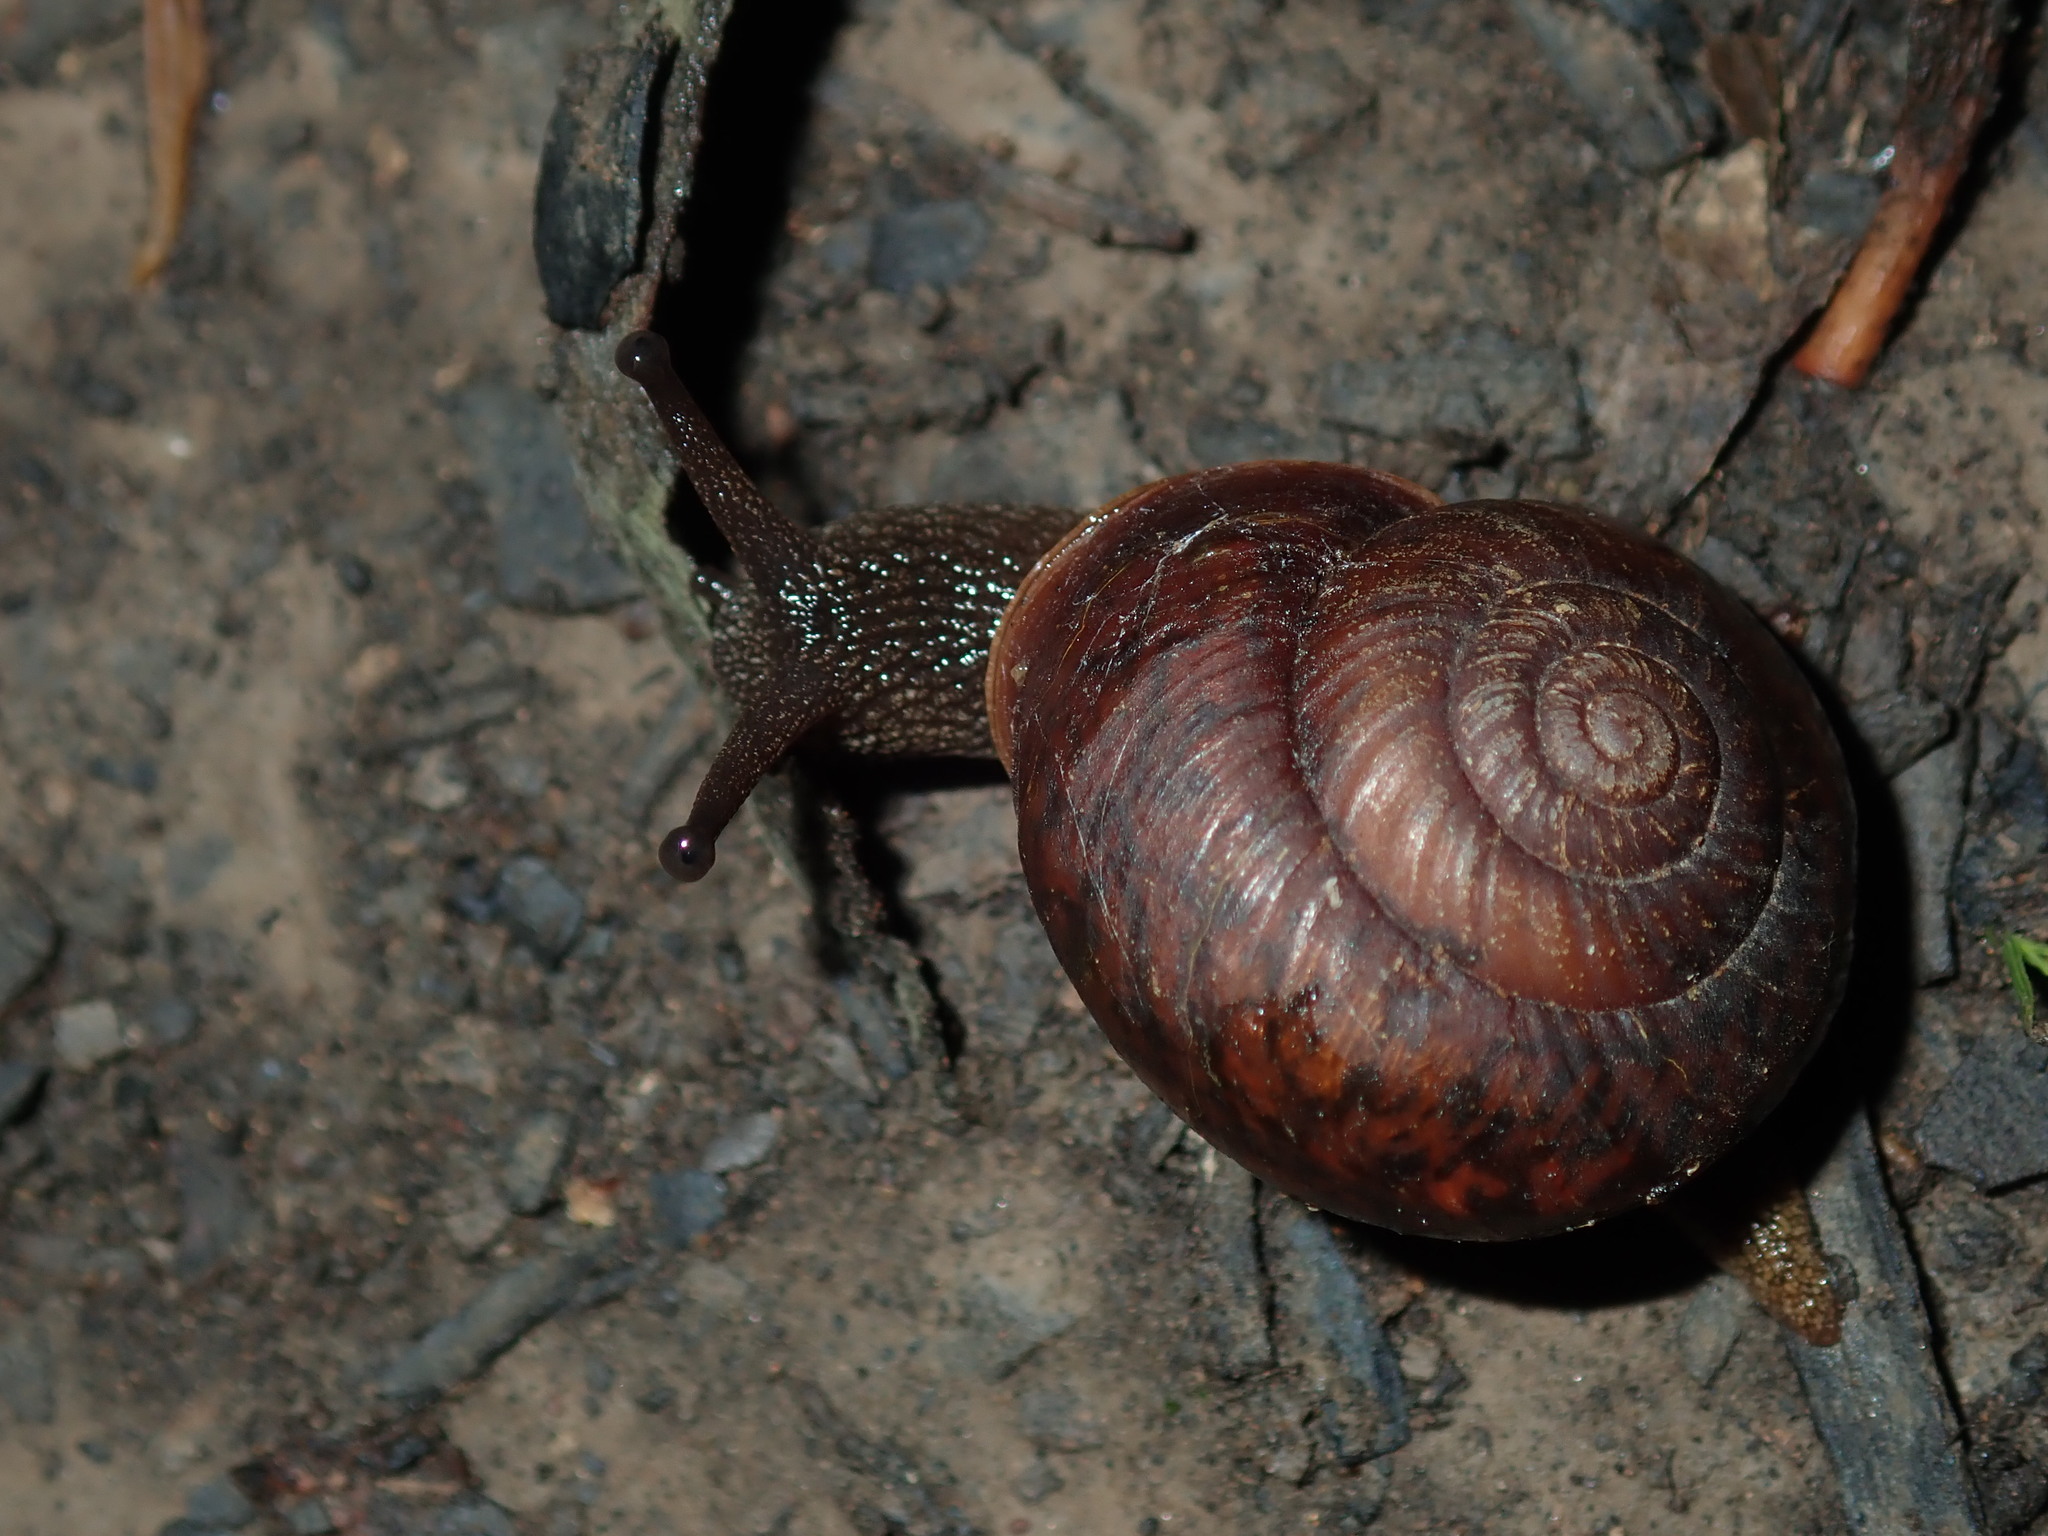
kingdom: Animalia
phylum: Mollusca
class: Gastropoda
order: Stylommatophora
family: Camaenidae
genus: Sauroconcha
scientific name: Sauroconcha sheai
